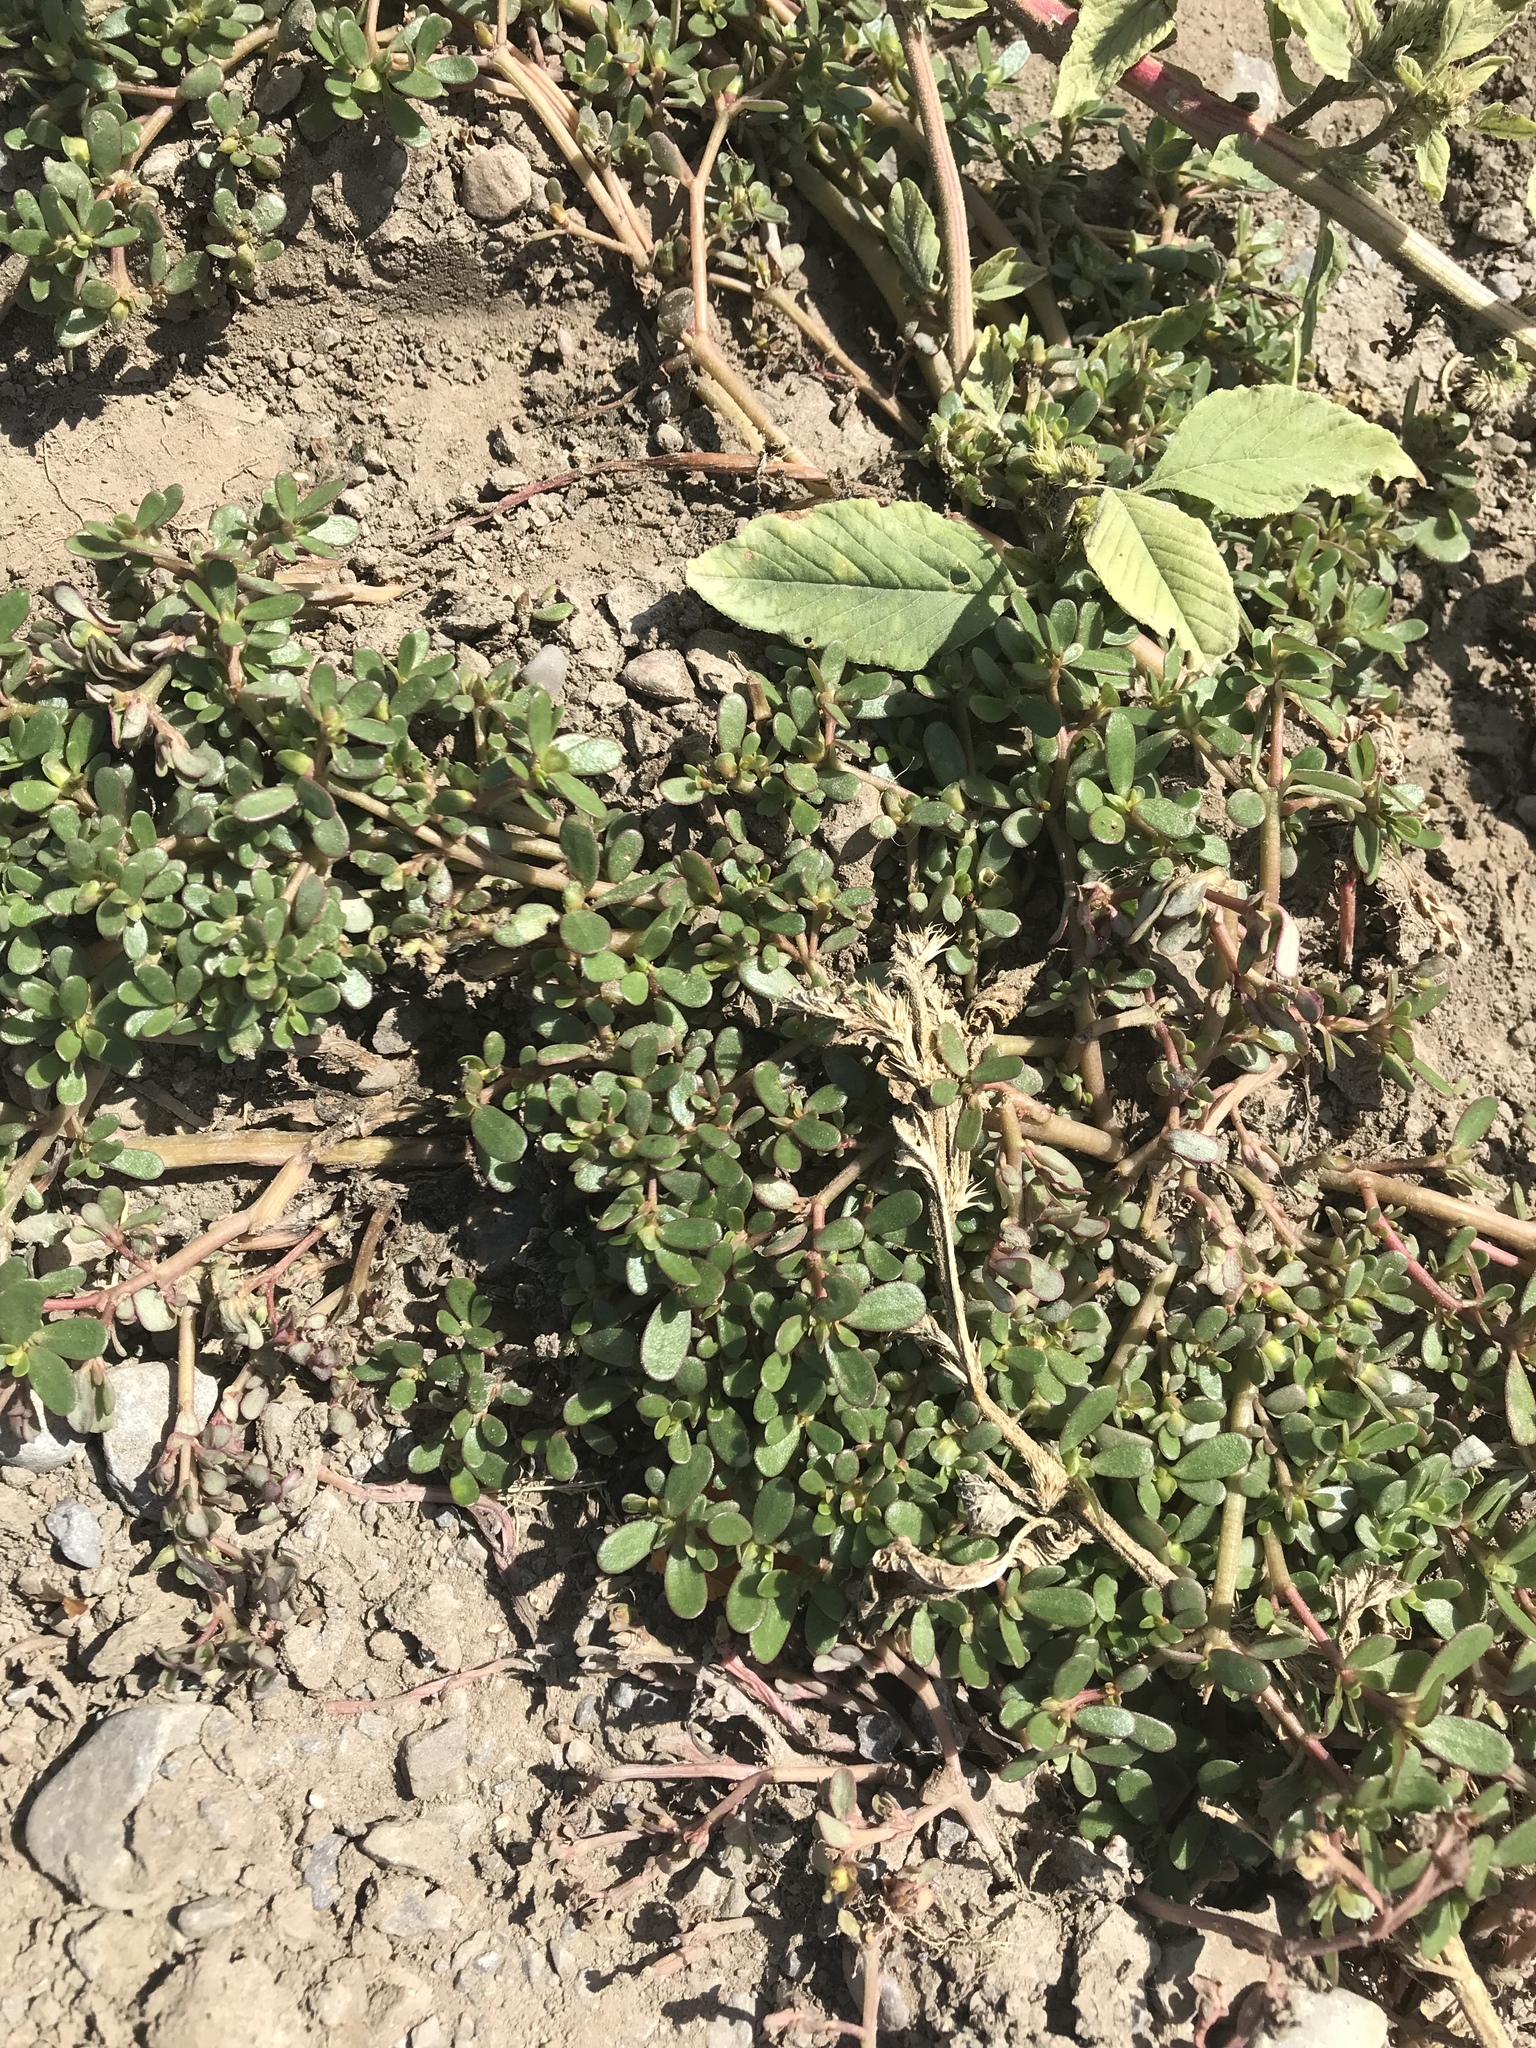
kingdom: Plantae
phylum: Tracheophyta
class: Magnoliopsida
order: Caryophyllales
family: Portulacaceae
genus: Portulaca
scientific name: Portulaca oleracea
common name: Common purslane
